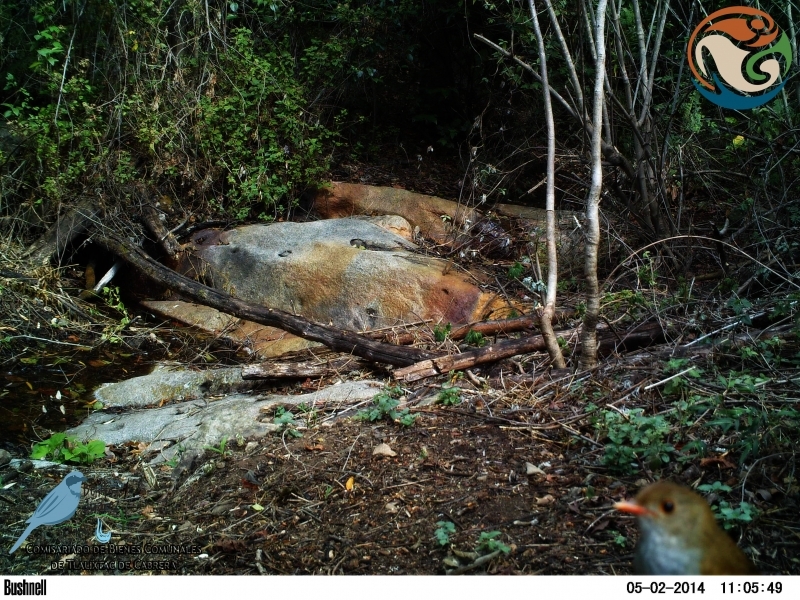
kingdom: Animalia
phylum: Chordata
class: Aves
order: Passeriformes
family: Turdidae
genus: Catharus
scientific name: Catharus aurantiirostris
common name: Orange-billed nightingale-thrush
